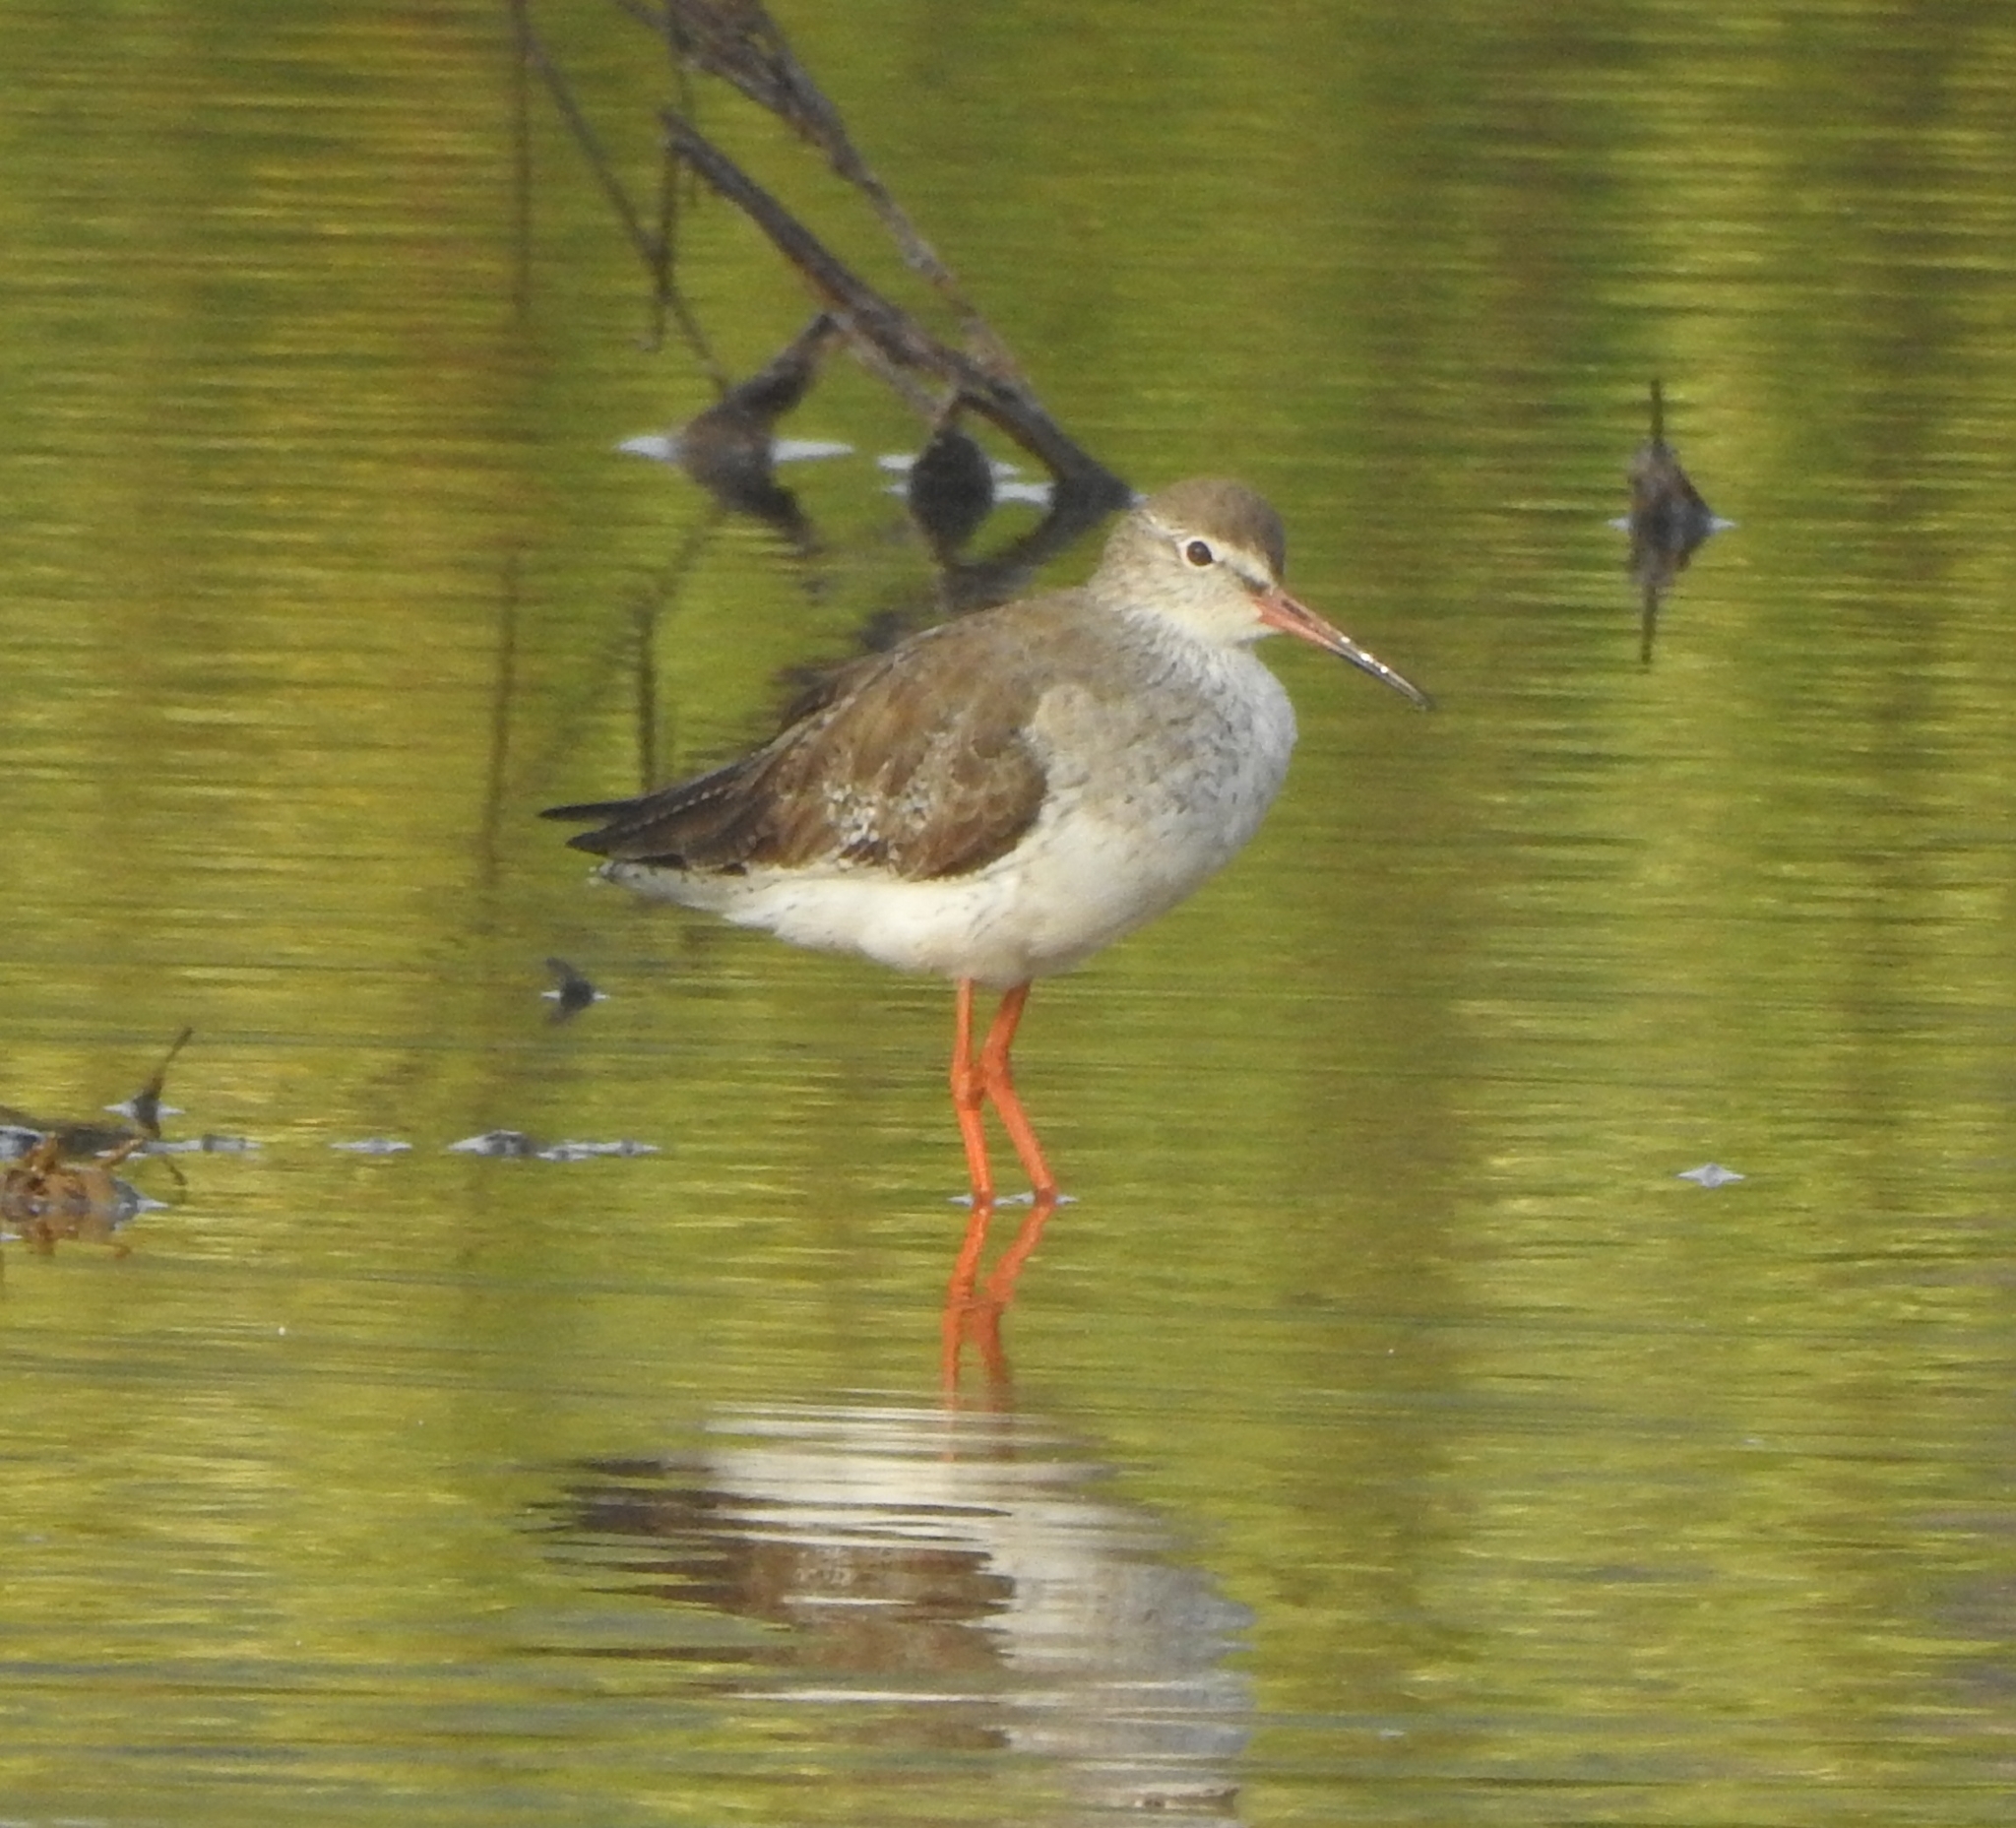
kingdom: Animalia
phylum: Chordata
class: Aves
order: Charadriiformes
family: Scolopacidae
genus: Tringa
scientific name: Tringa totanus
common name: Common redshank
